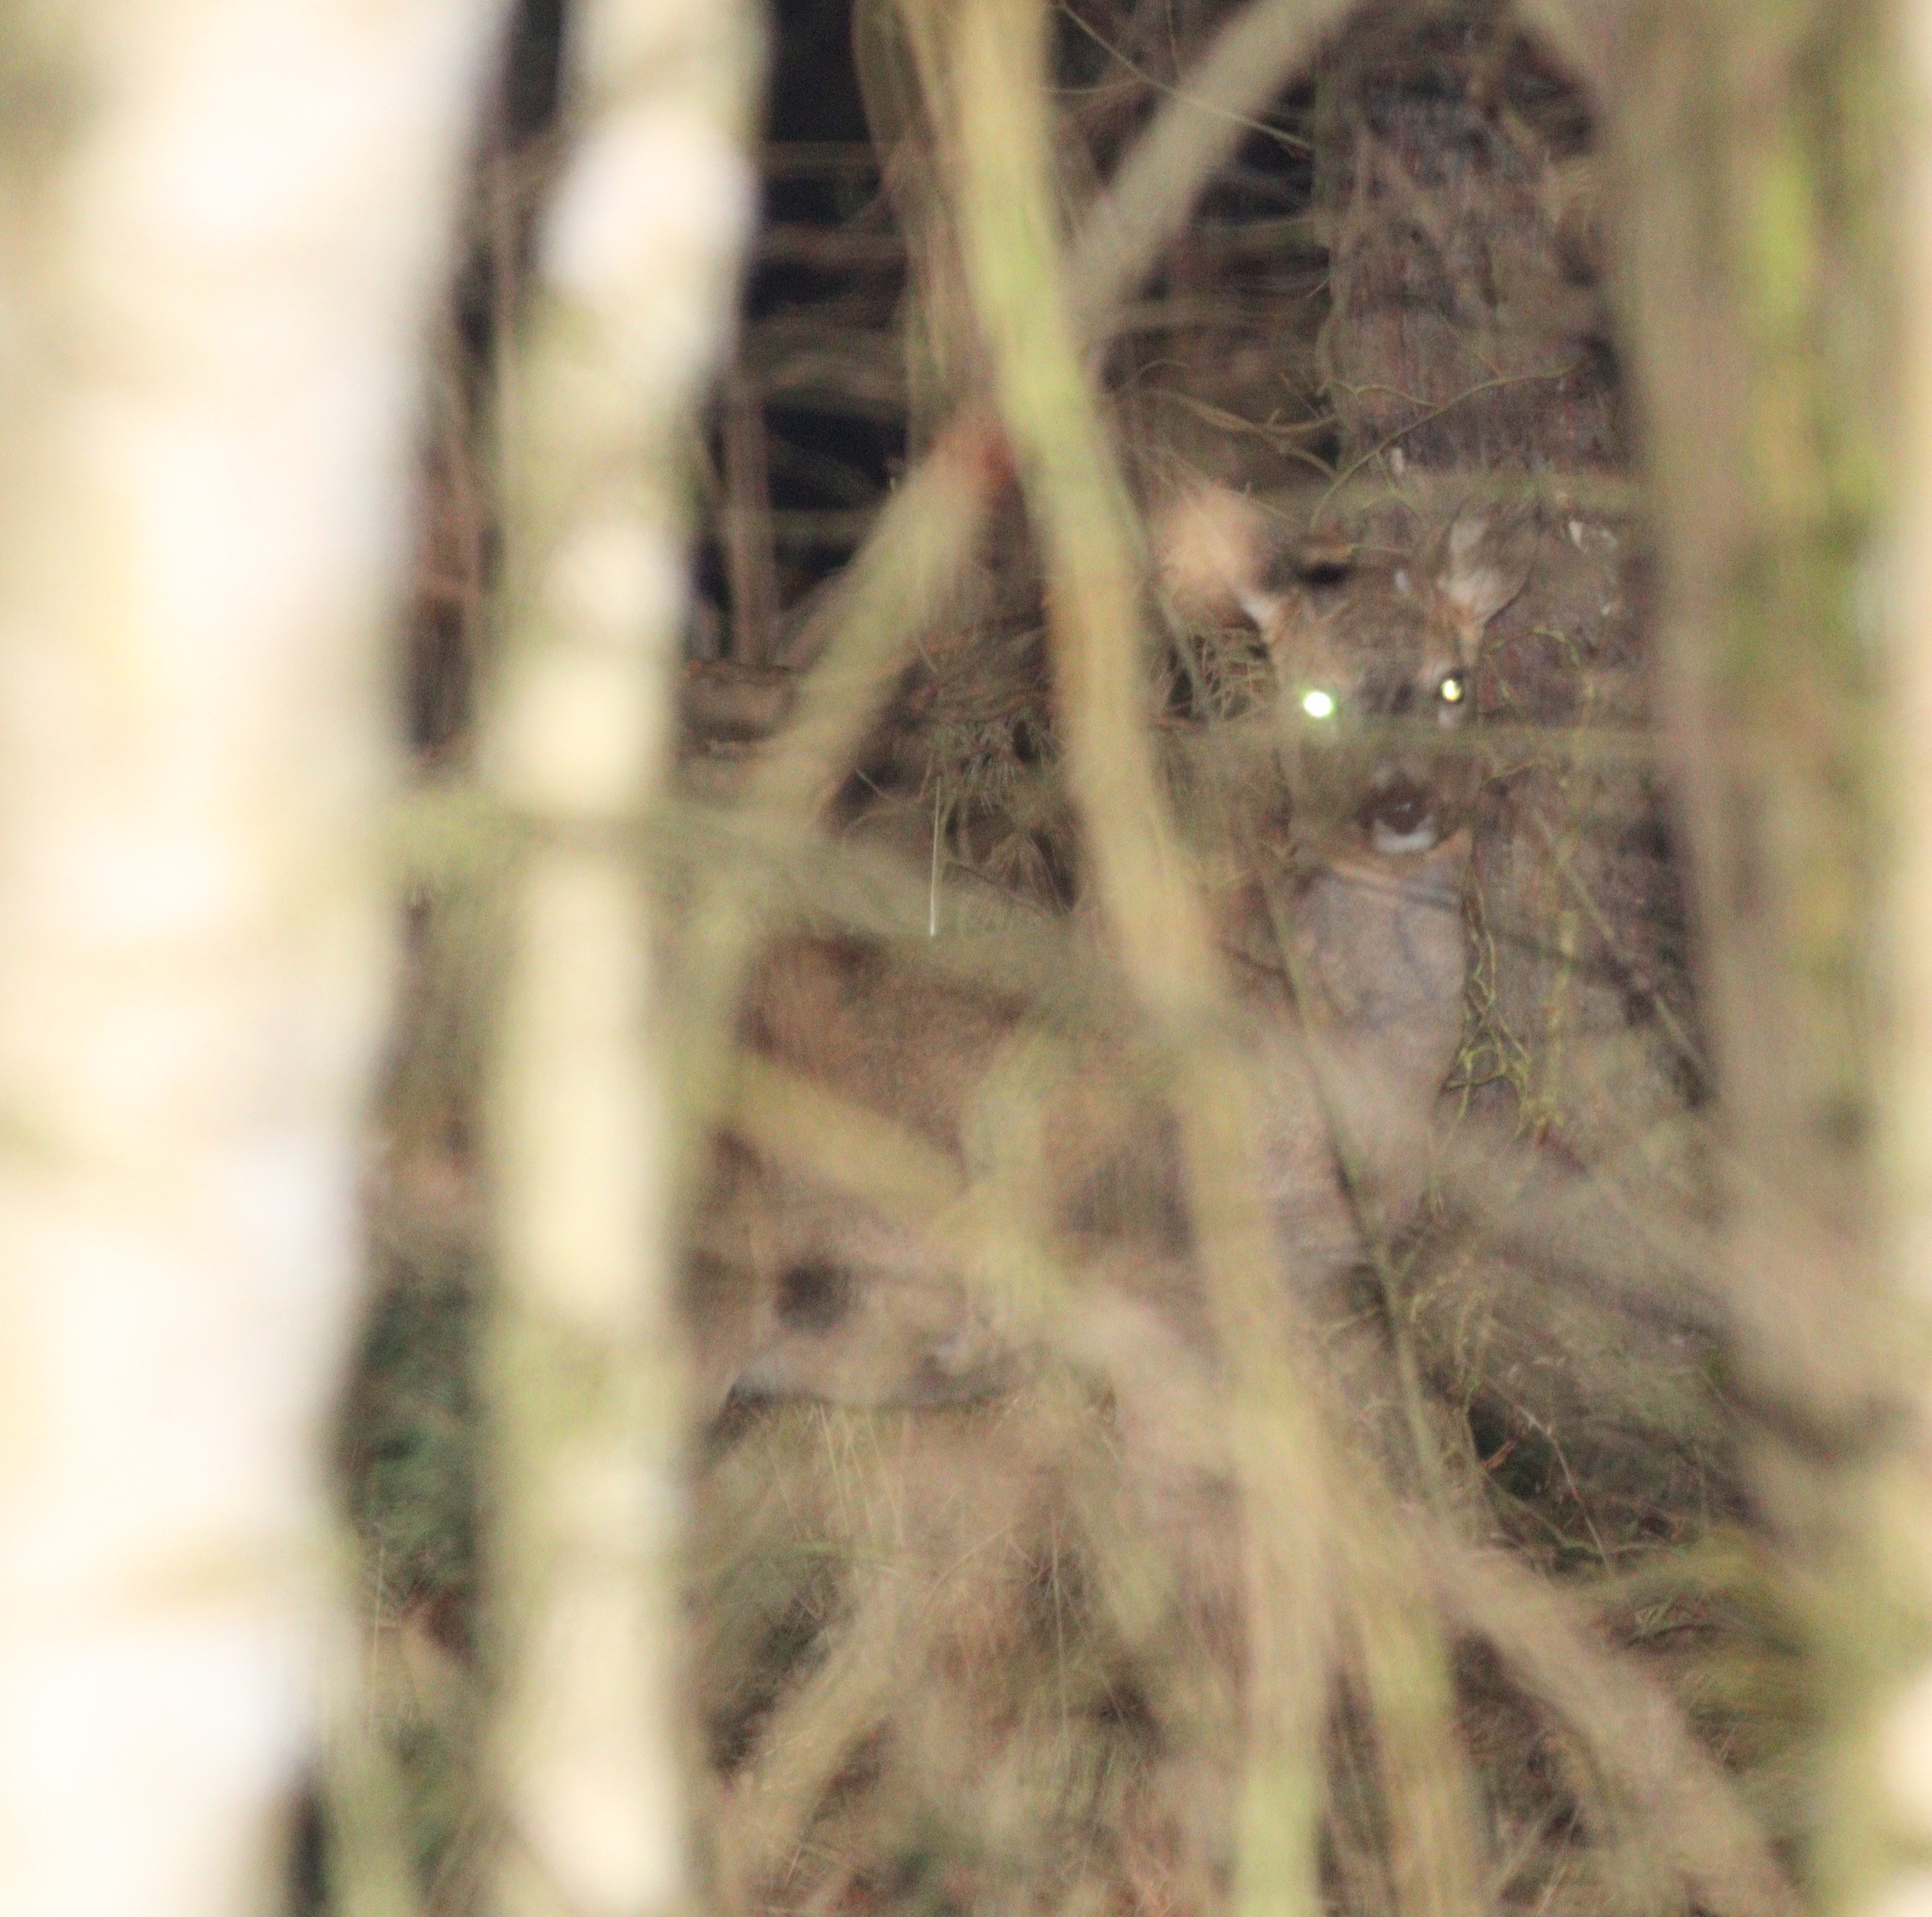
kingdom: Animalia
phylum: Chordata
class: Mammalia
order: Artiodactyla
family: Cervidae
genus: Capreolus
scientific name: Capreolus capreolus
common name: Western roe deer
